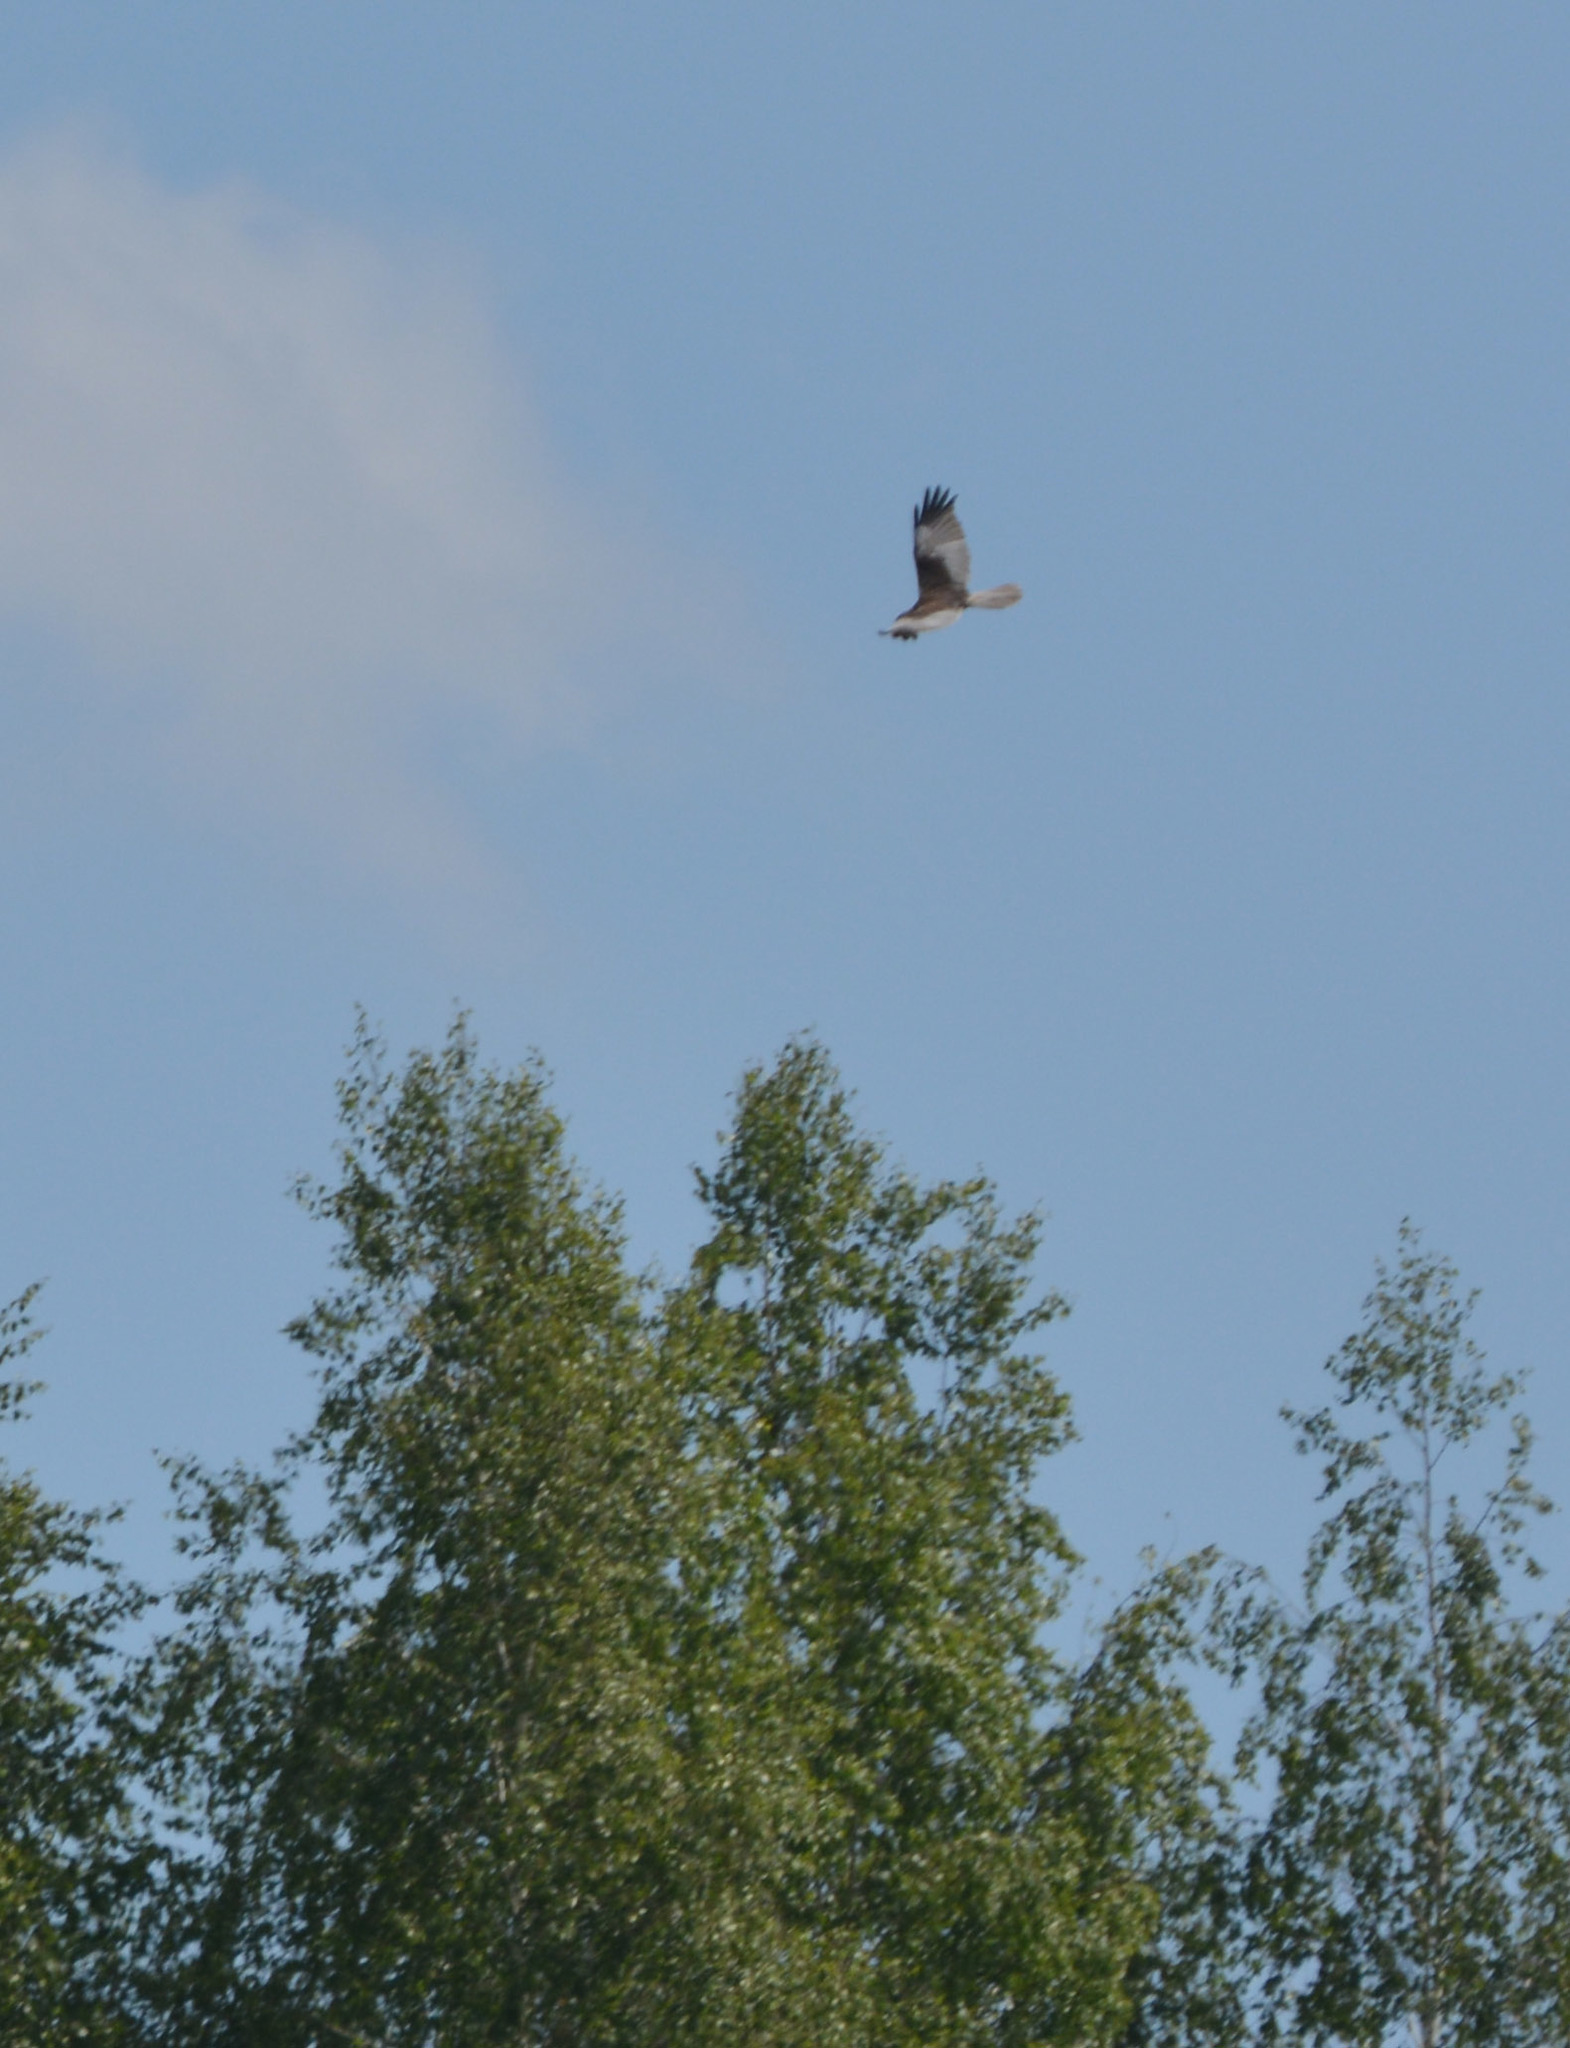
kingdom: Animalia
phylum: Chordata
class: Aves
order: Accipitriformes
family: Accipitridae
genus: Circus
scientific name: Circus aeruginosus
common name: Western marsh harrier
